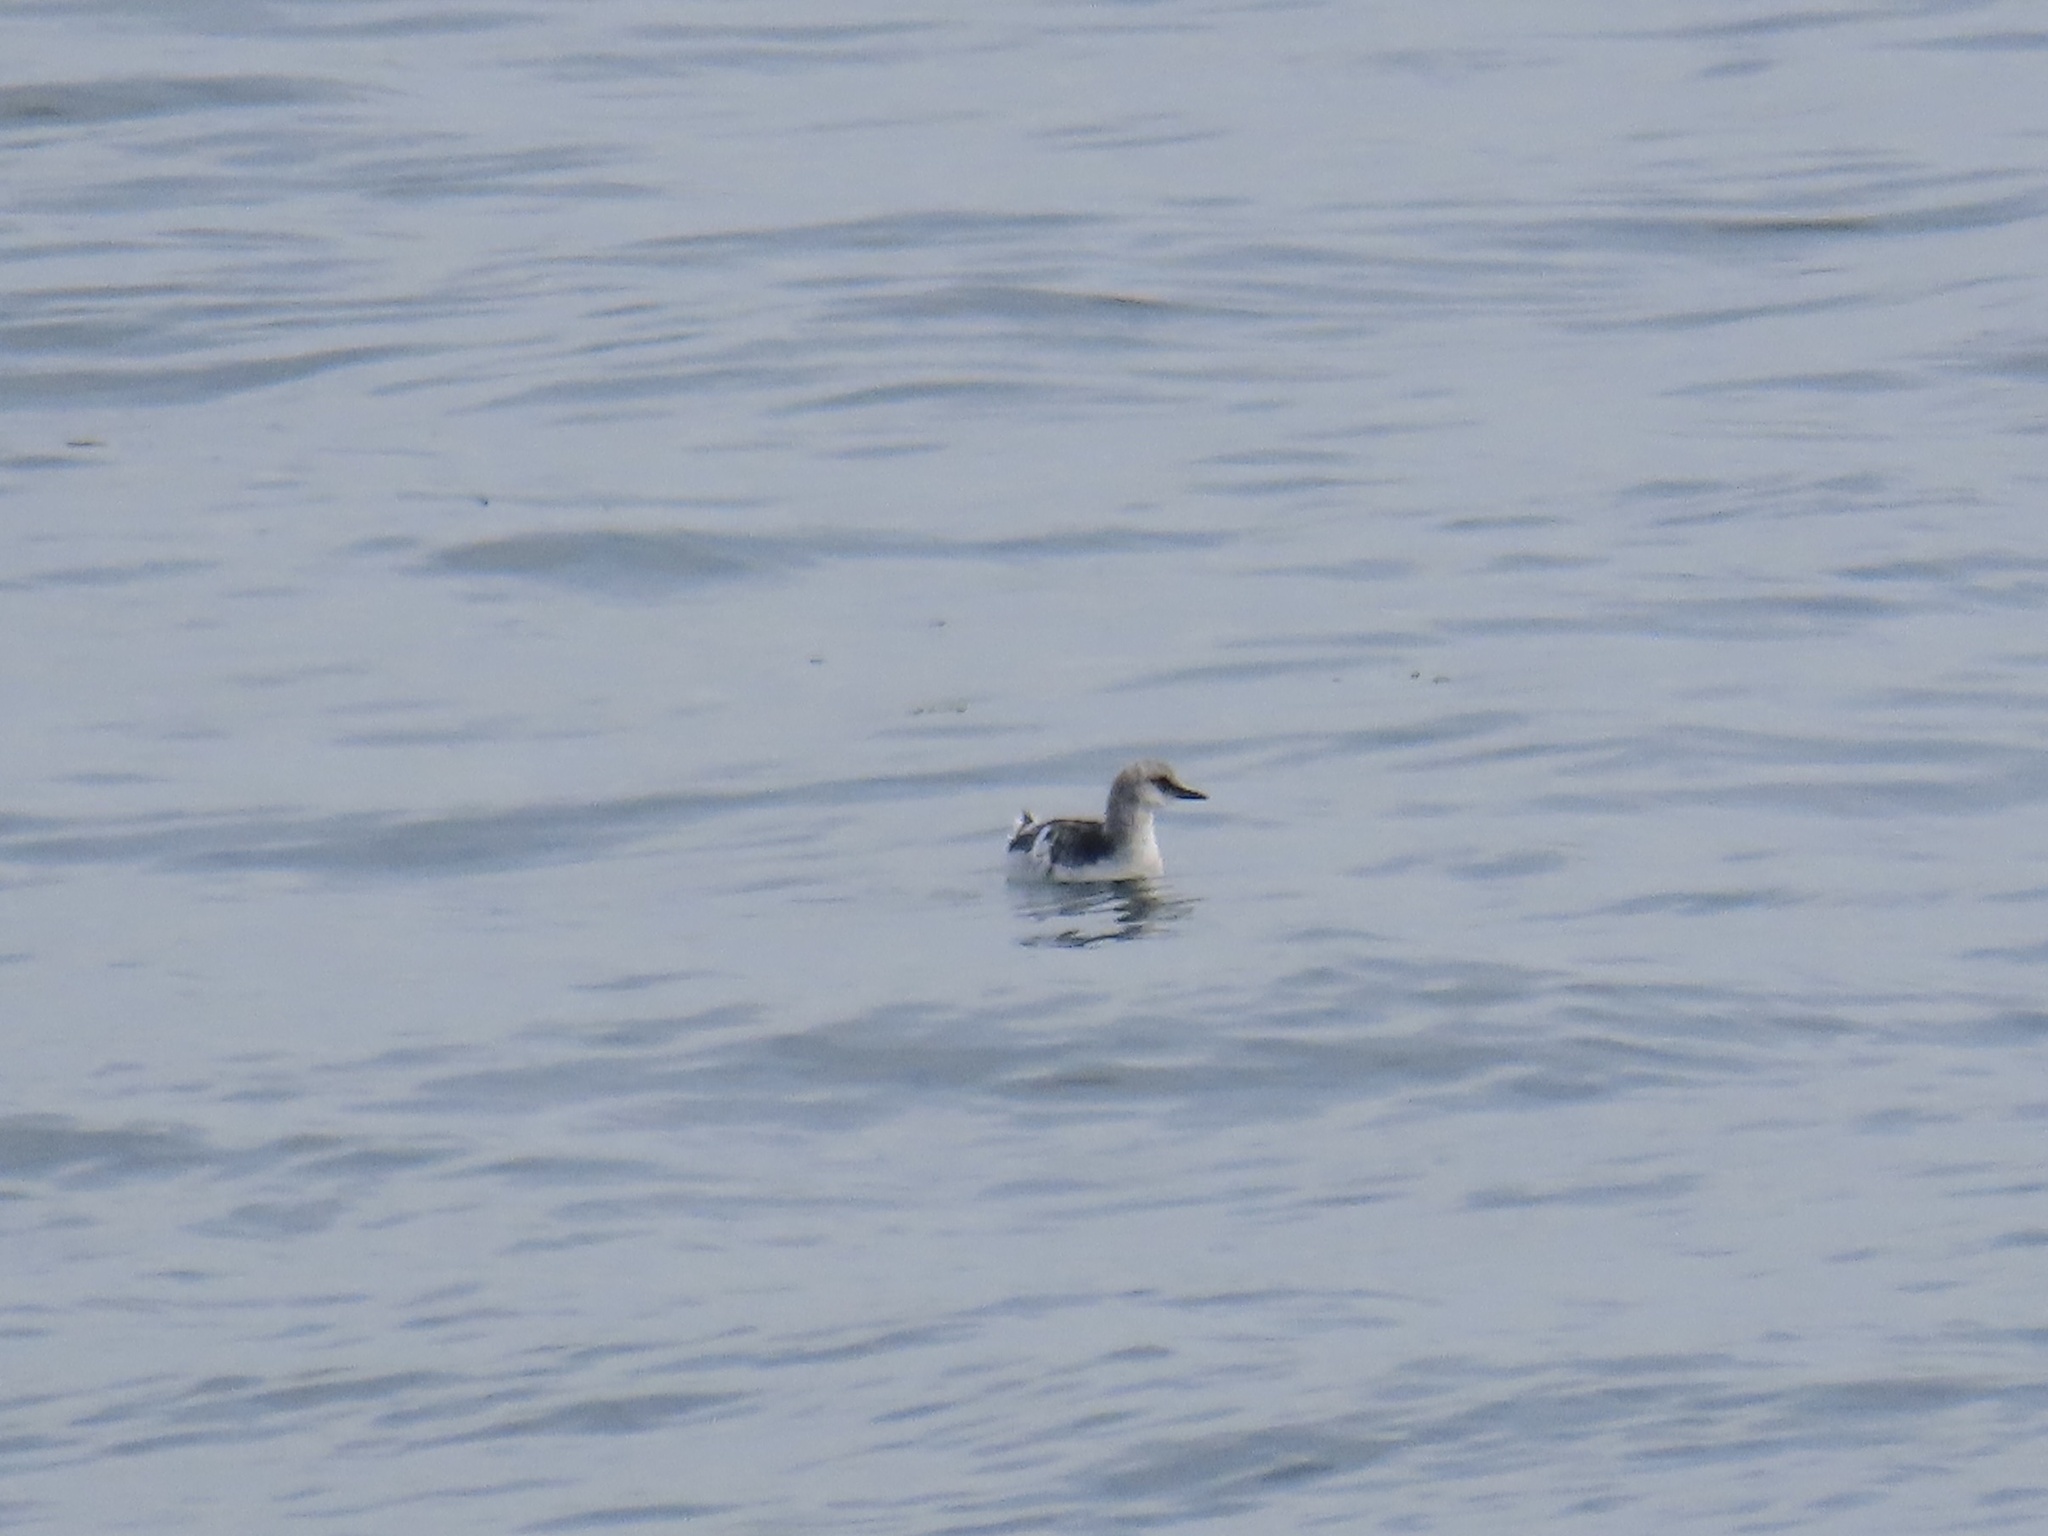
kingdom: Animalia
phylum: Chordata
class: Aves
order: Charadriiformes
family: Alcidae
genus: Cepphus
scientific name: Cepphus columba
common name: Pigeon guillemot
